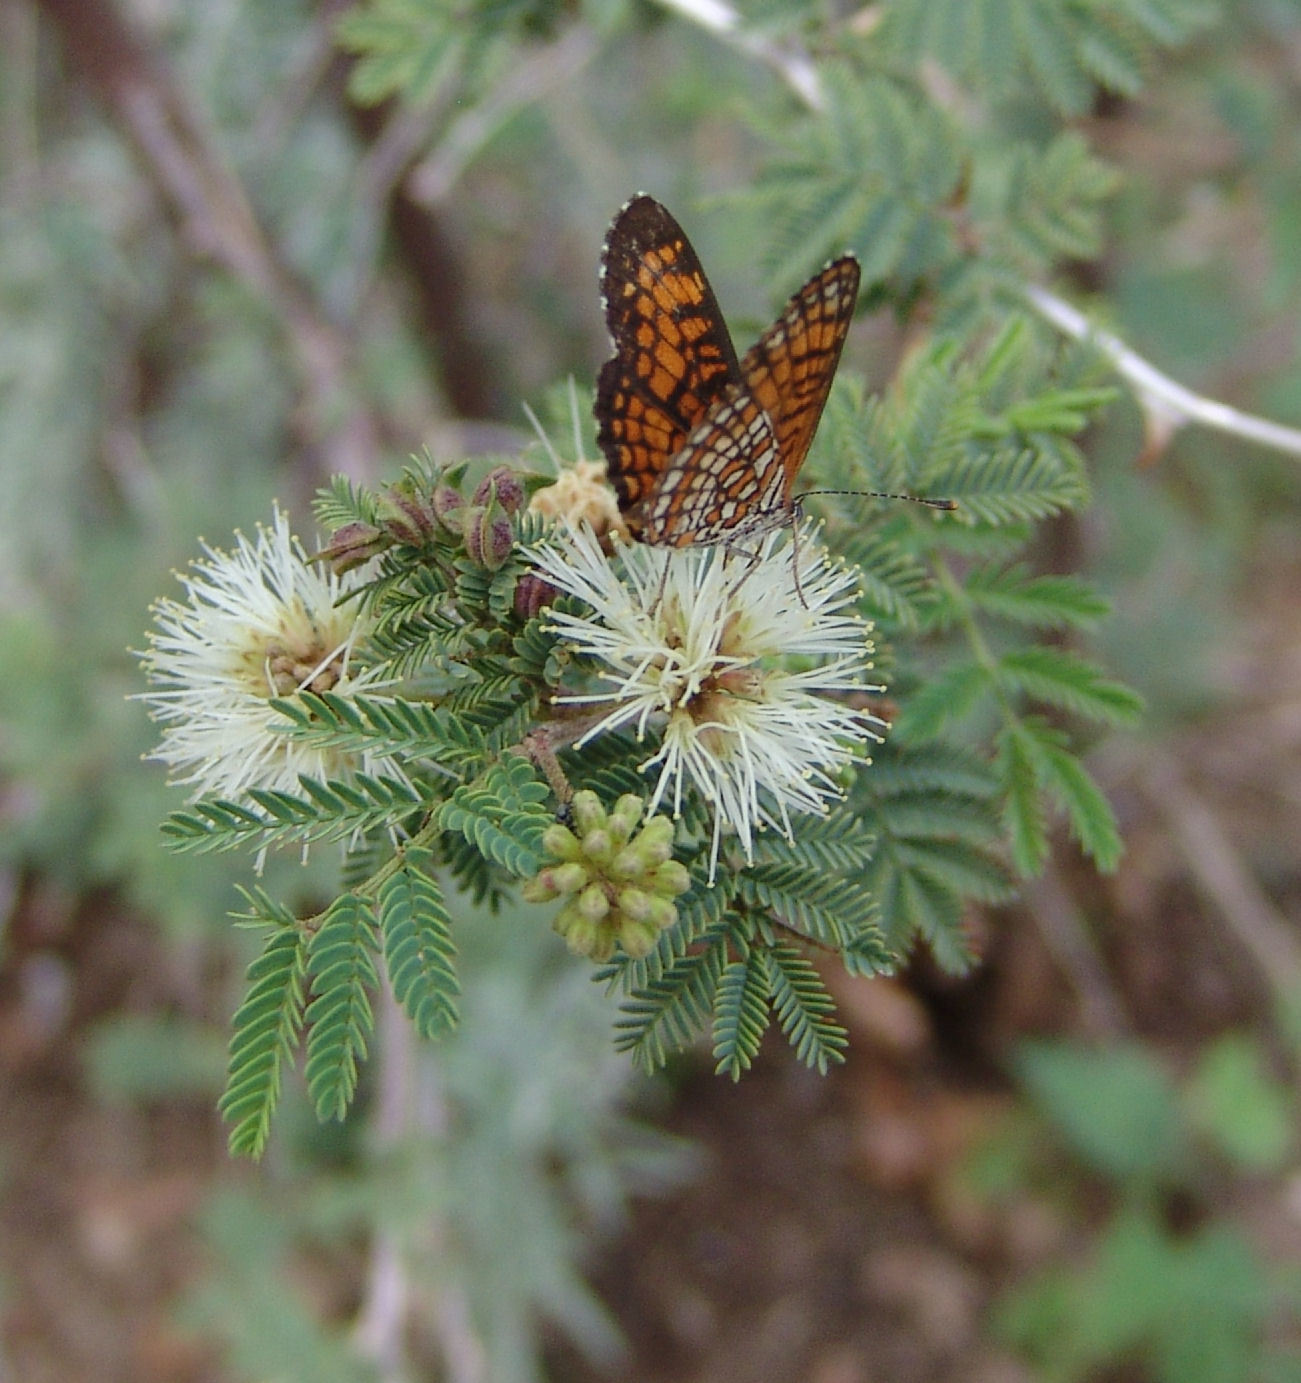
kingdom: Animalia
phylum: Arthropoda
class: Insecta
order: Lepidoptera
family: Nymphalidae
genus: Texola
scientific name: Texola
